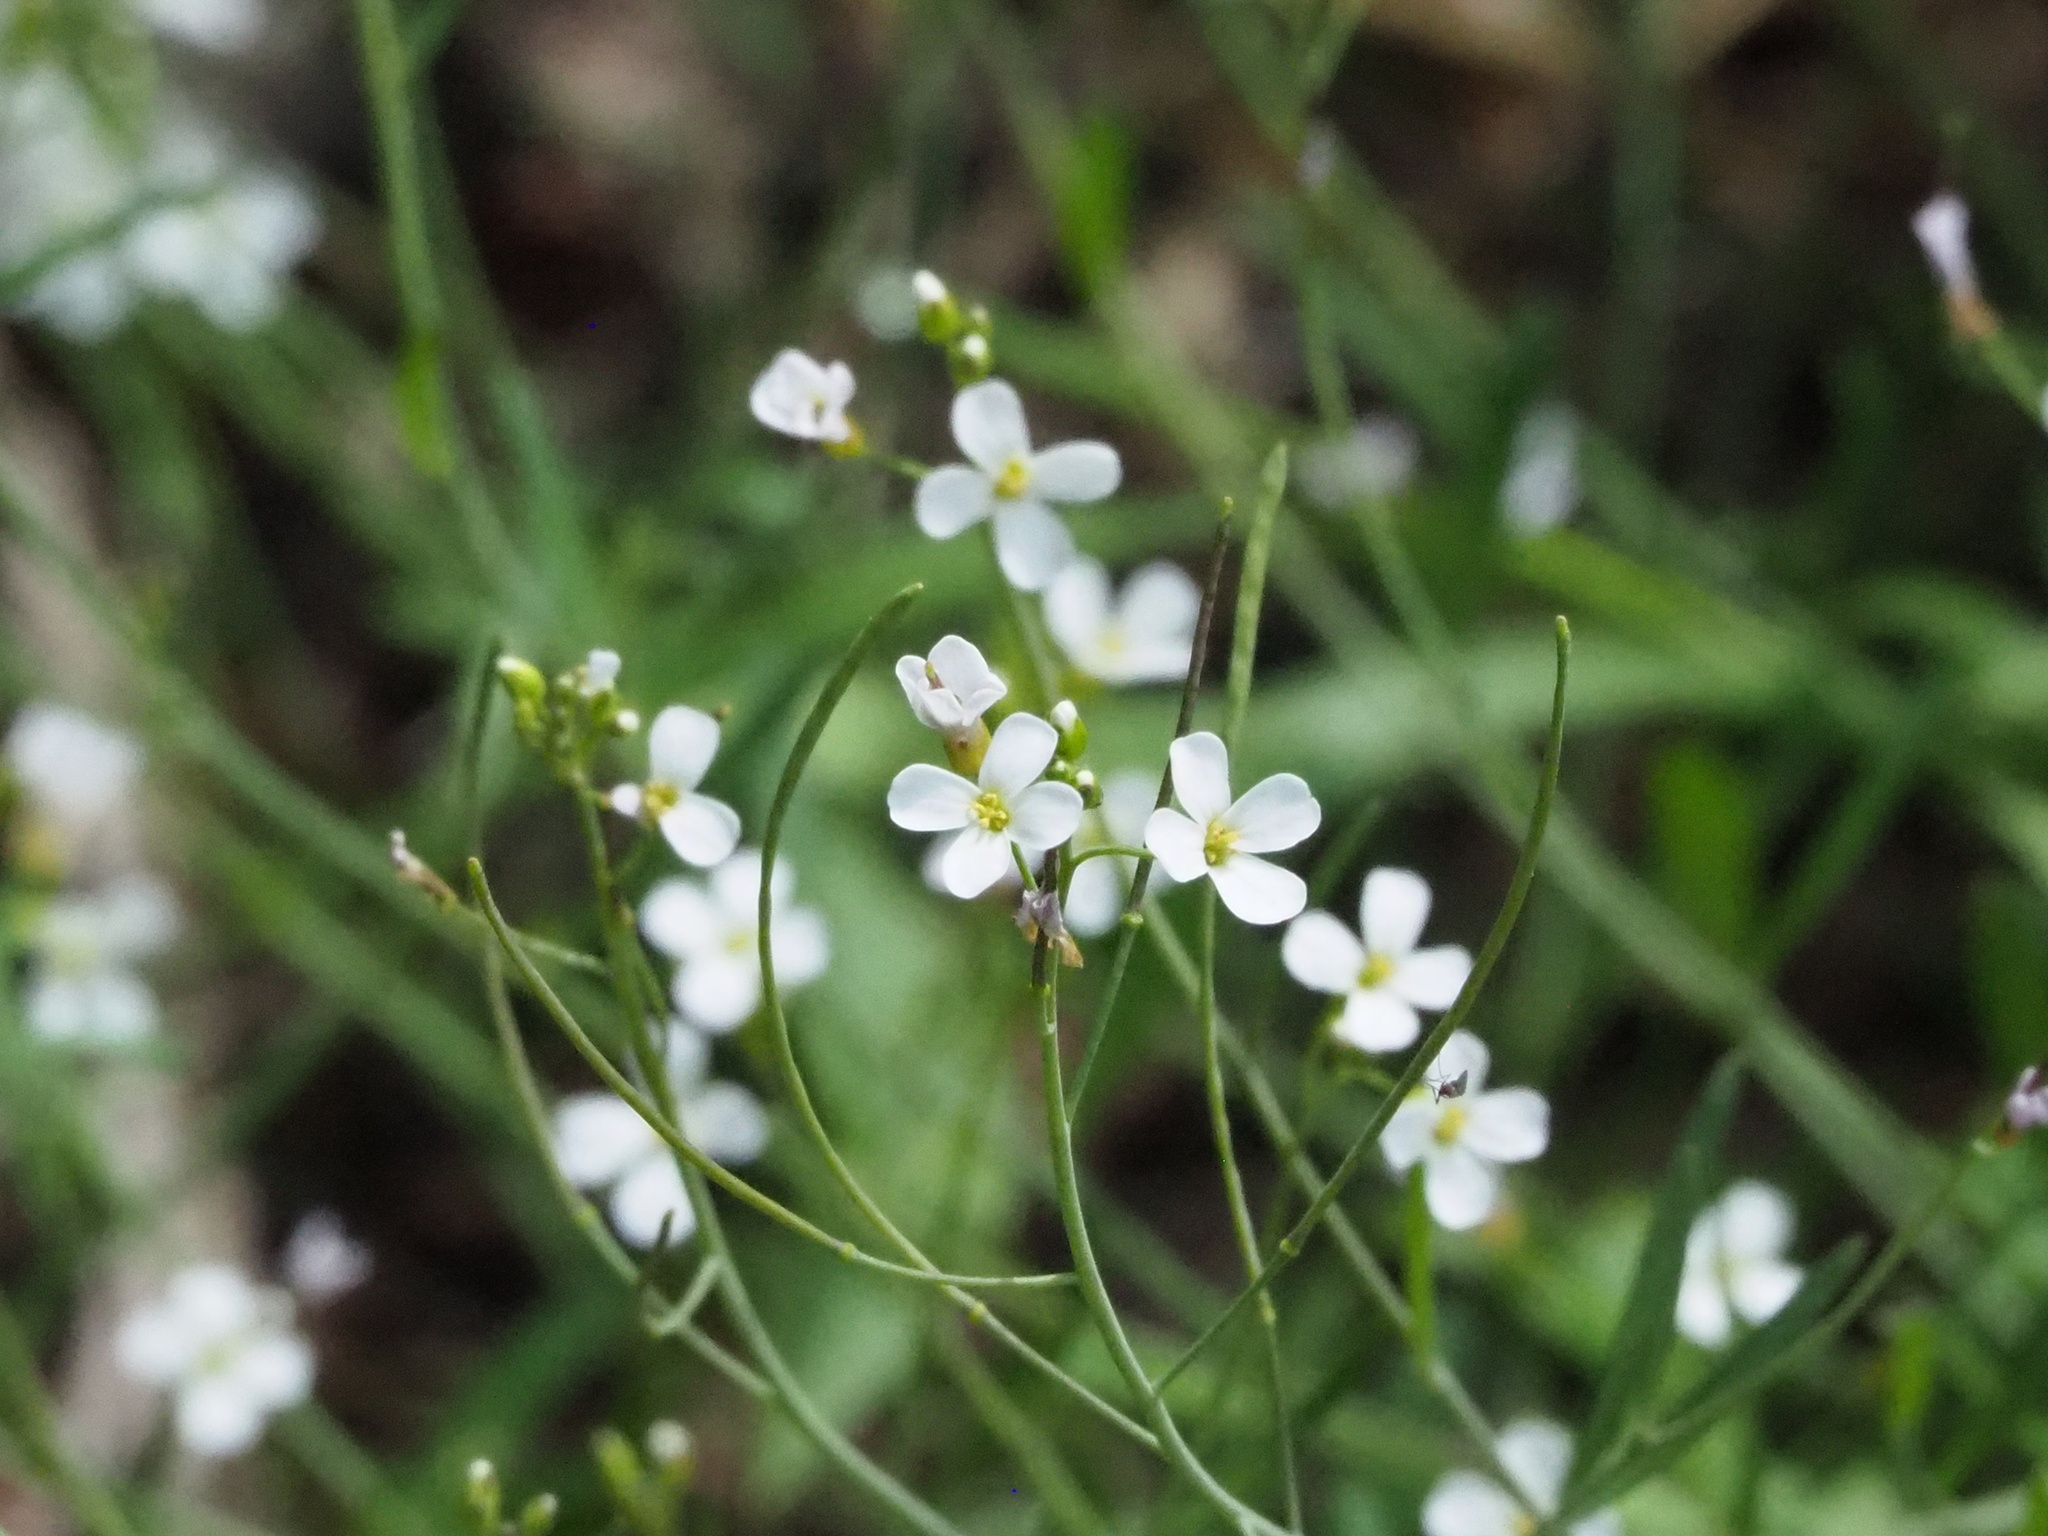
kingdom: Plantae
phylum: Tracheophyta
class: Magnoliopsida
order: Brassicales
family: Brassicaceae
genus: Arabidopsis
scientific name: Arabidopsis lyrata
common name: Lyrate rockcress
